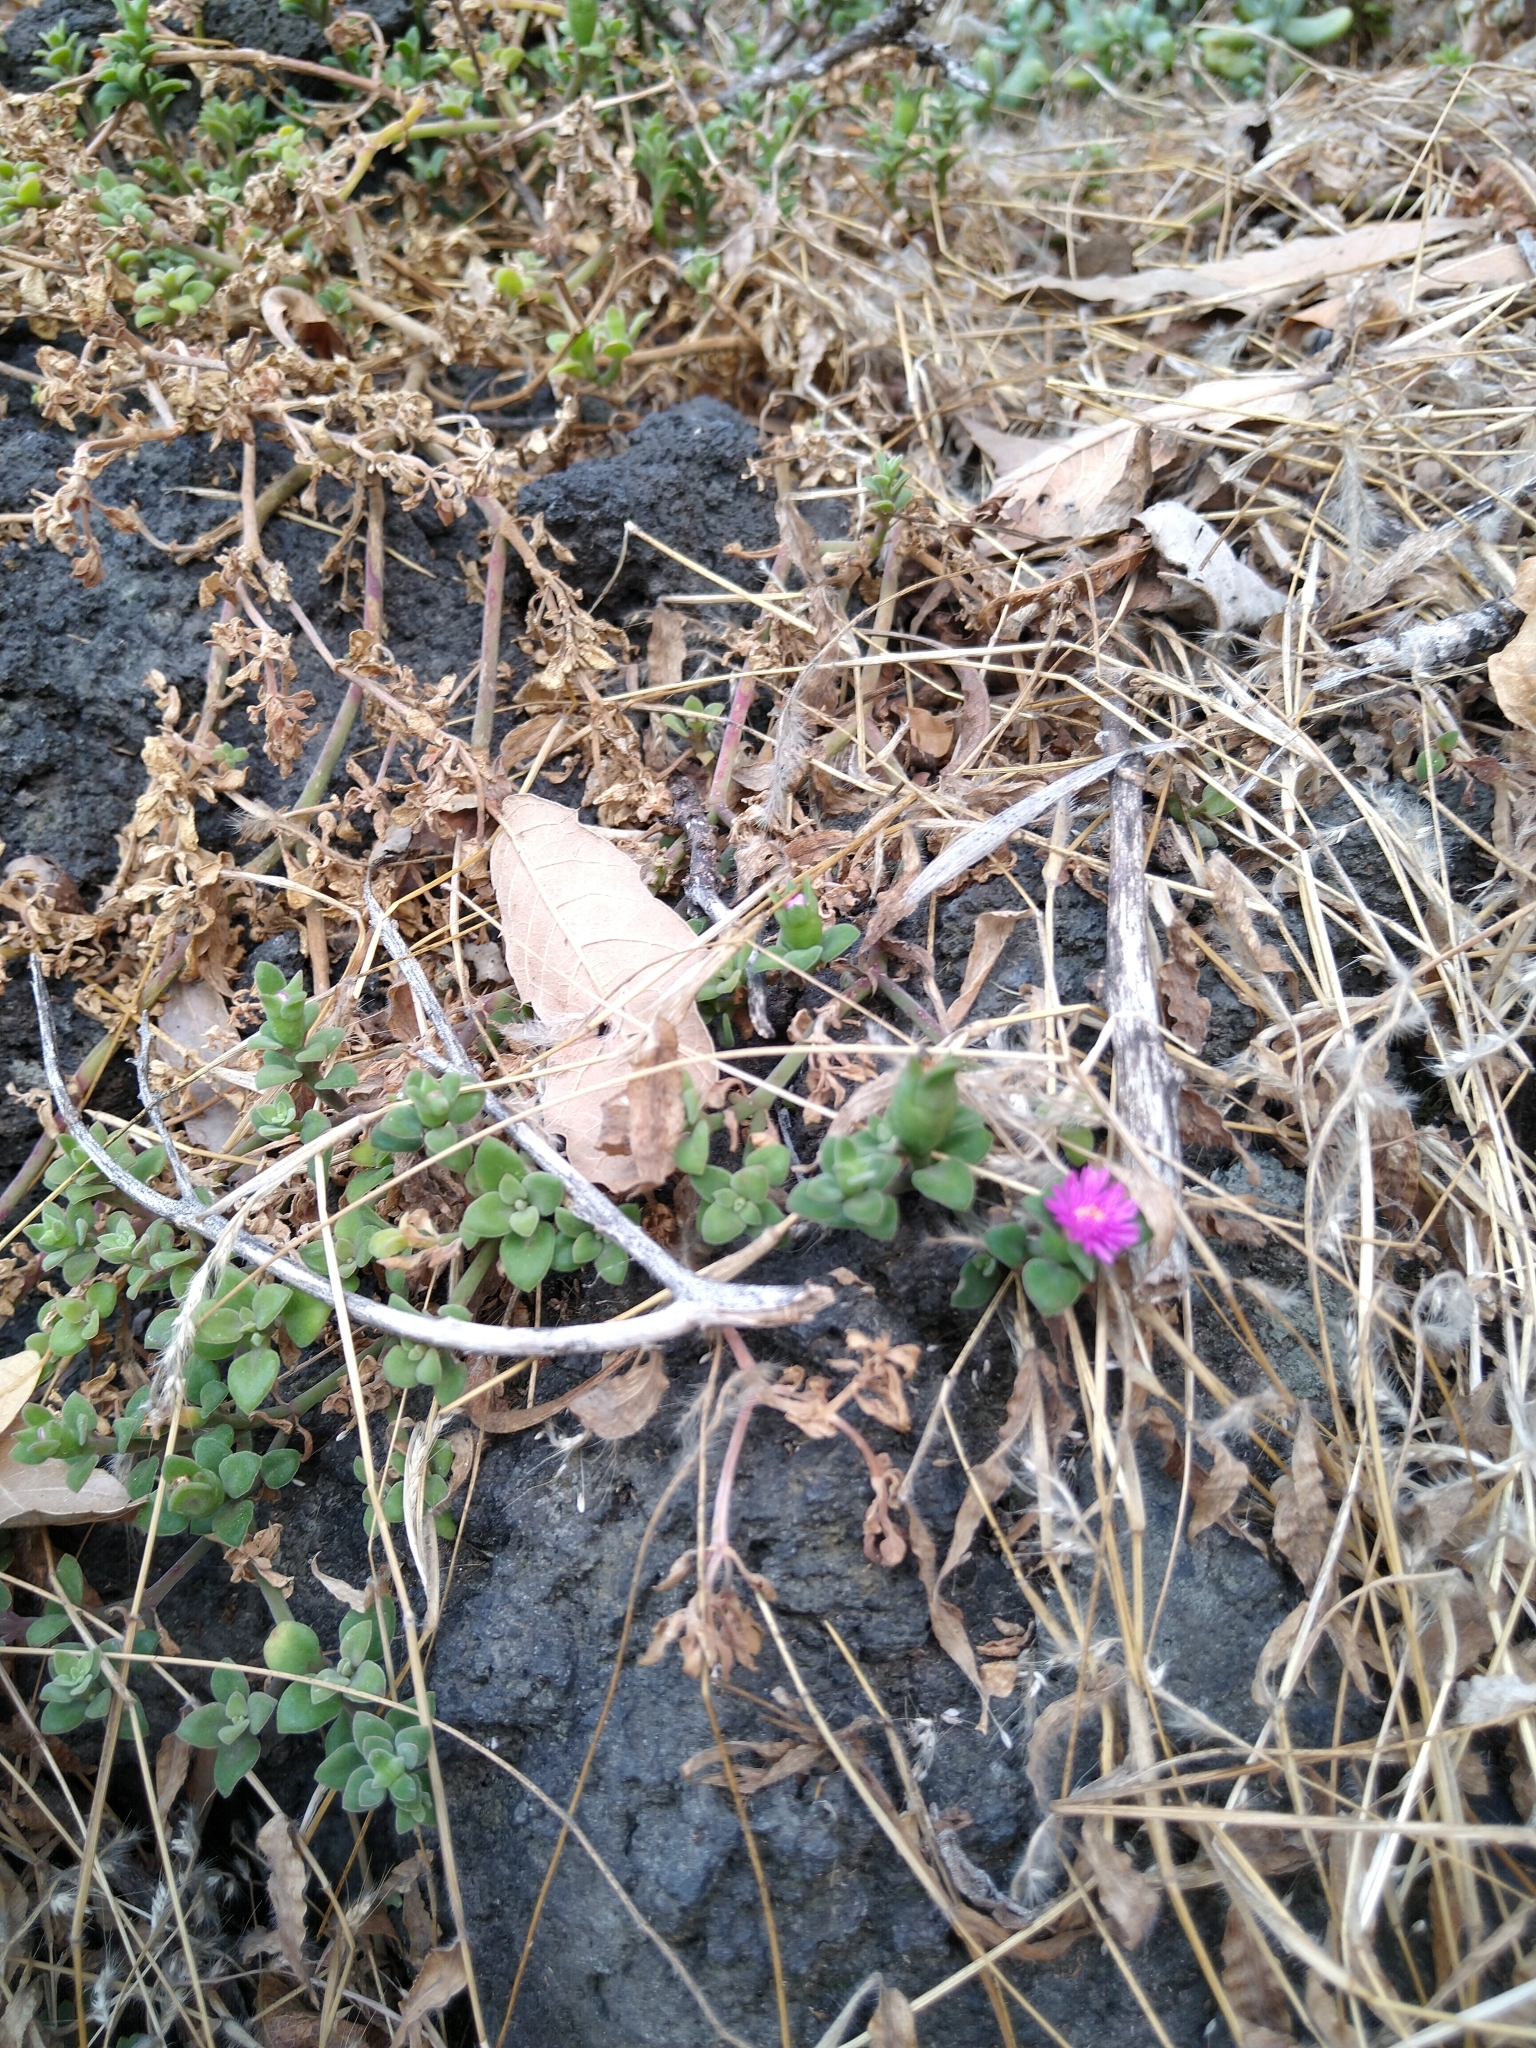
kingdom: Plantae
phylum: Tracheophyta
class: Magnoliopsida
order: Caryophyllales
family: Aizoaceae
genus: Mesembryanthemum
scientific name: Mesembryanthemum cordifolium
